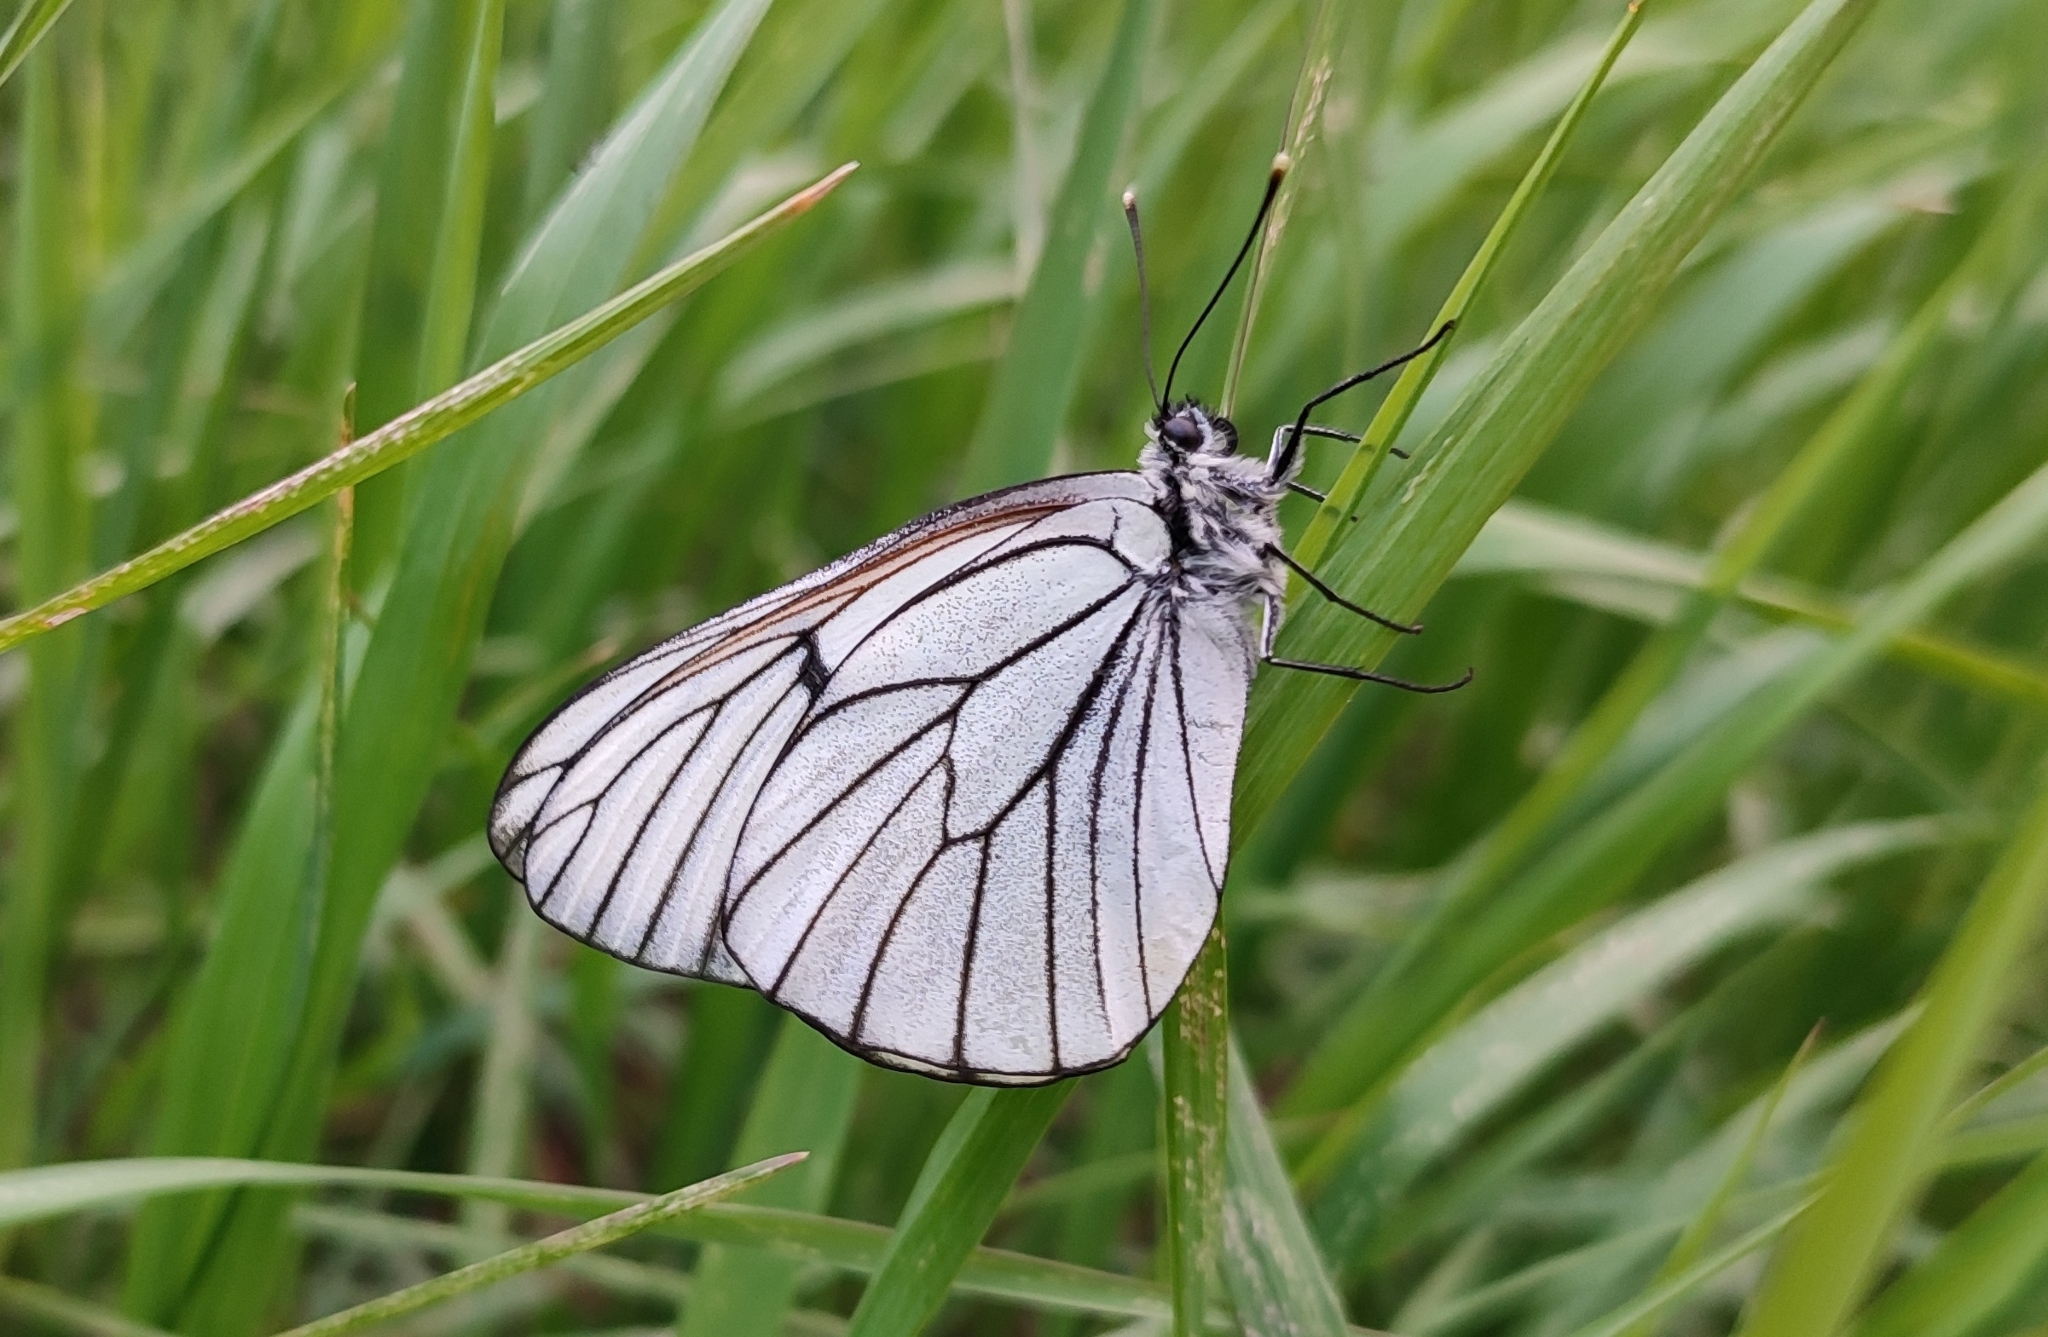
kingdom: Animalia
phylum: Arthropoda
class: Insecta
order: Lepidoptera
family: Pieridae
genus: Aporia
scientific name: Aporia crataegi
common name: Black-veined white
